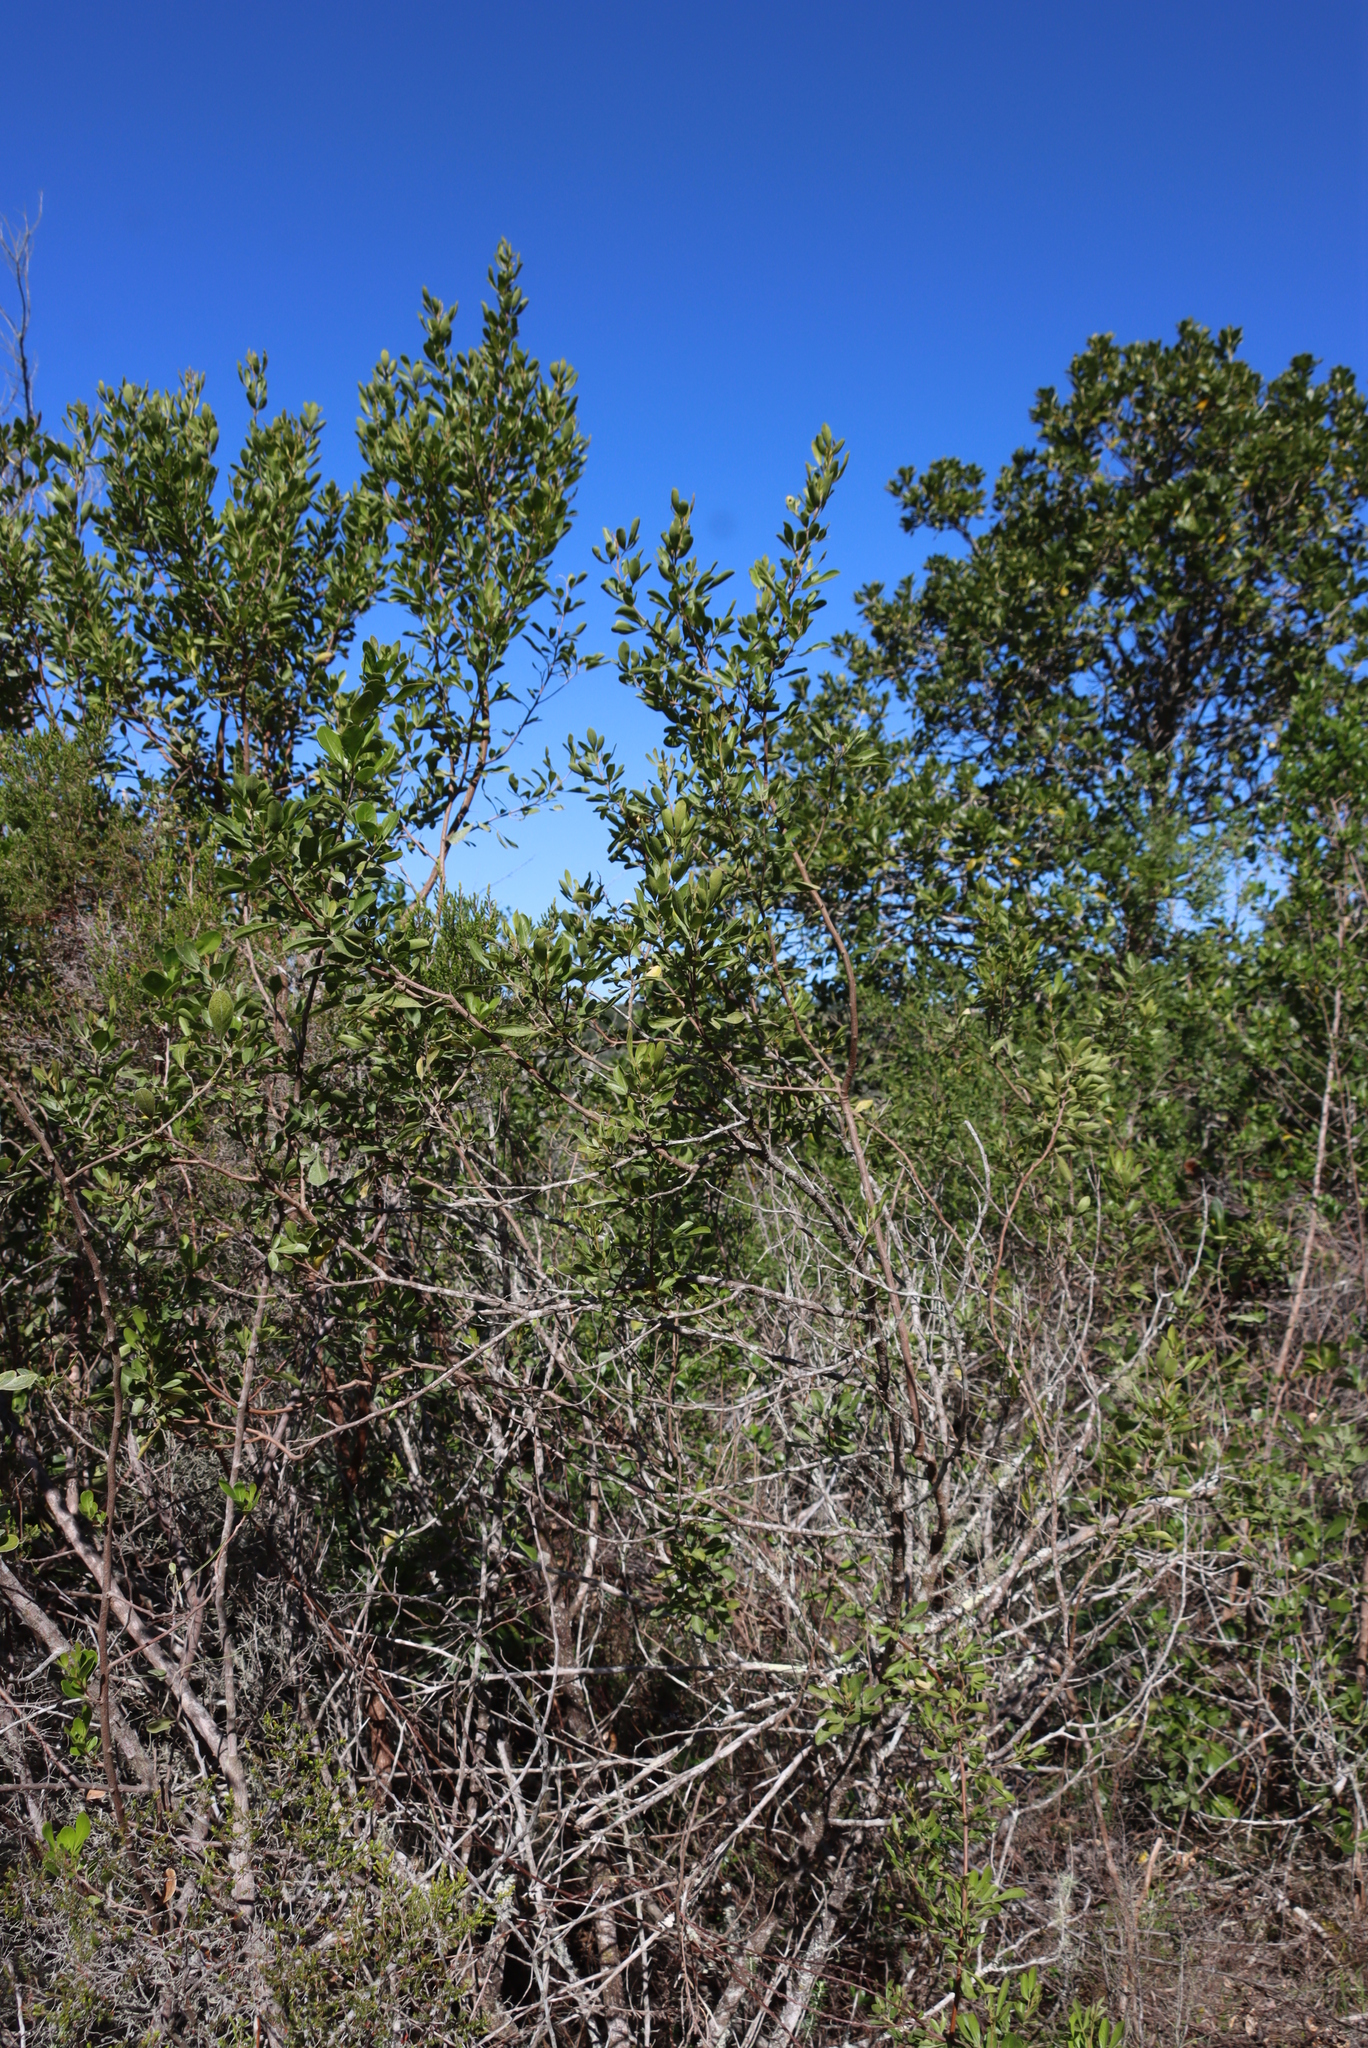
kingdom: Plantae
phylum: Tracheophyta
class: Magnoliopsida
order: Sapindales
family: Anacardiaceae
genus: Searsia
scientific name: Searsia lucida
